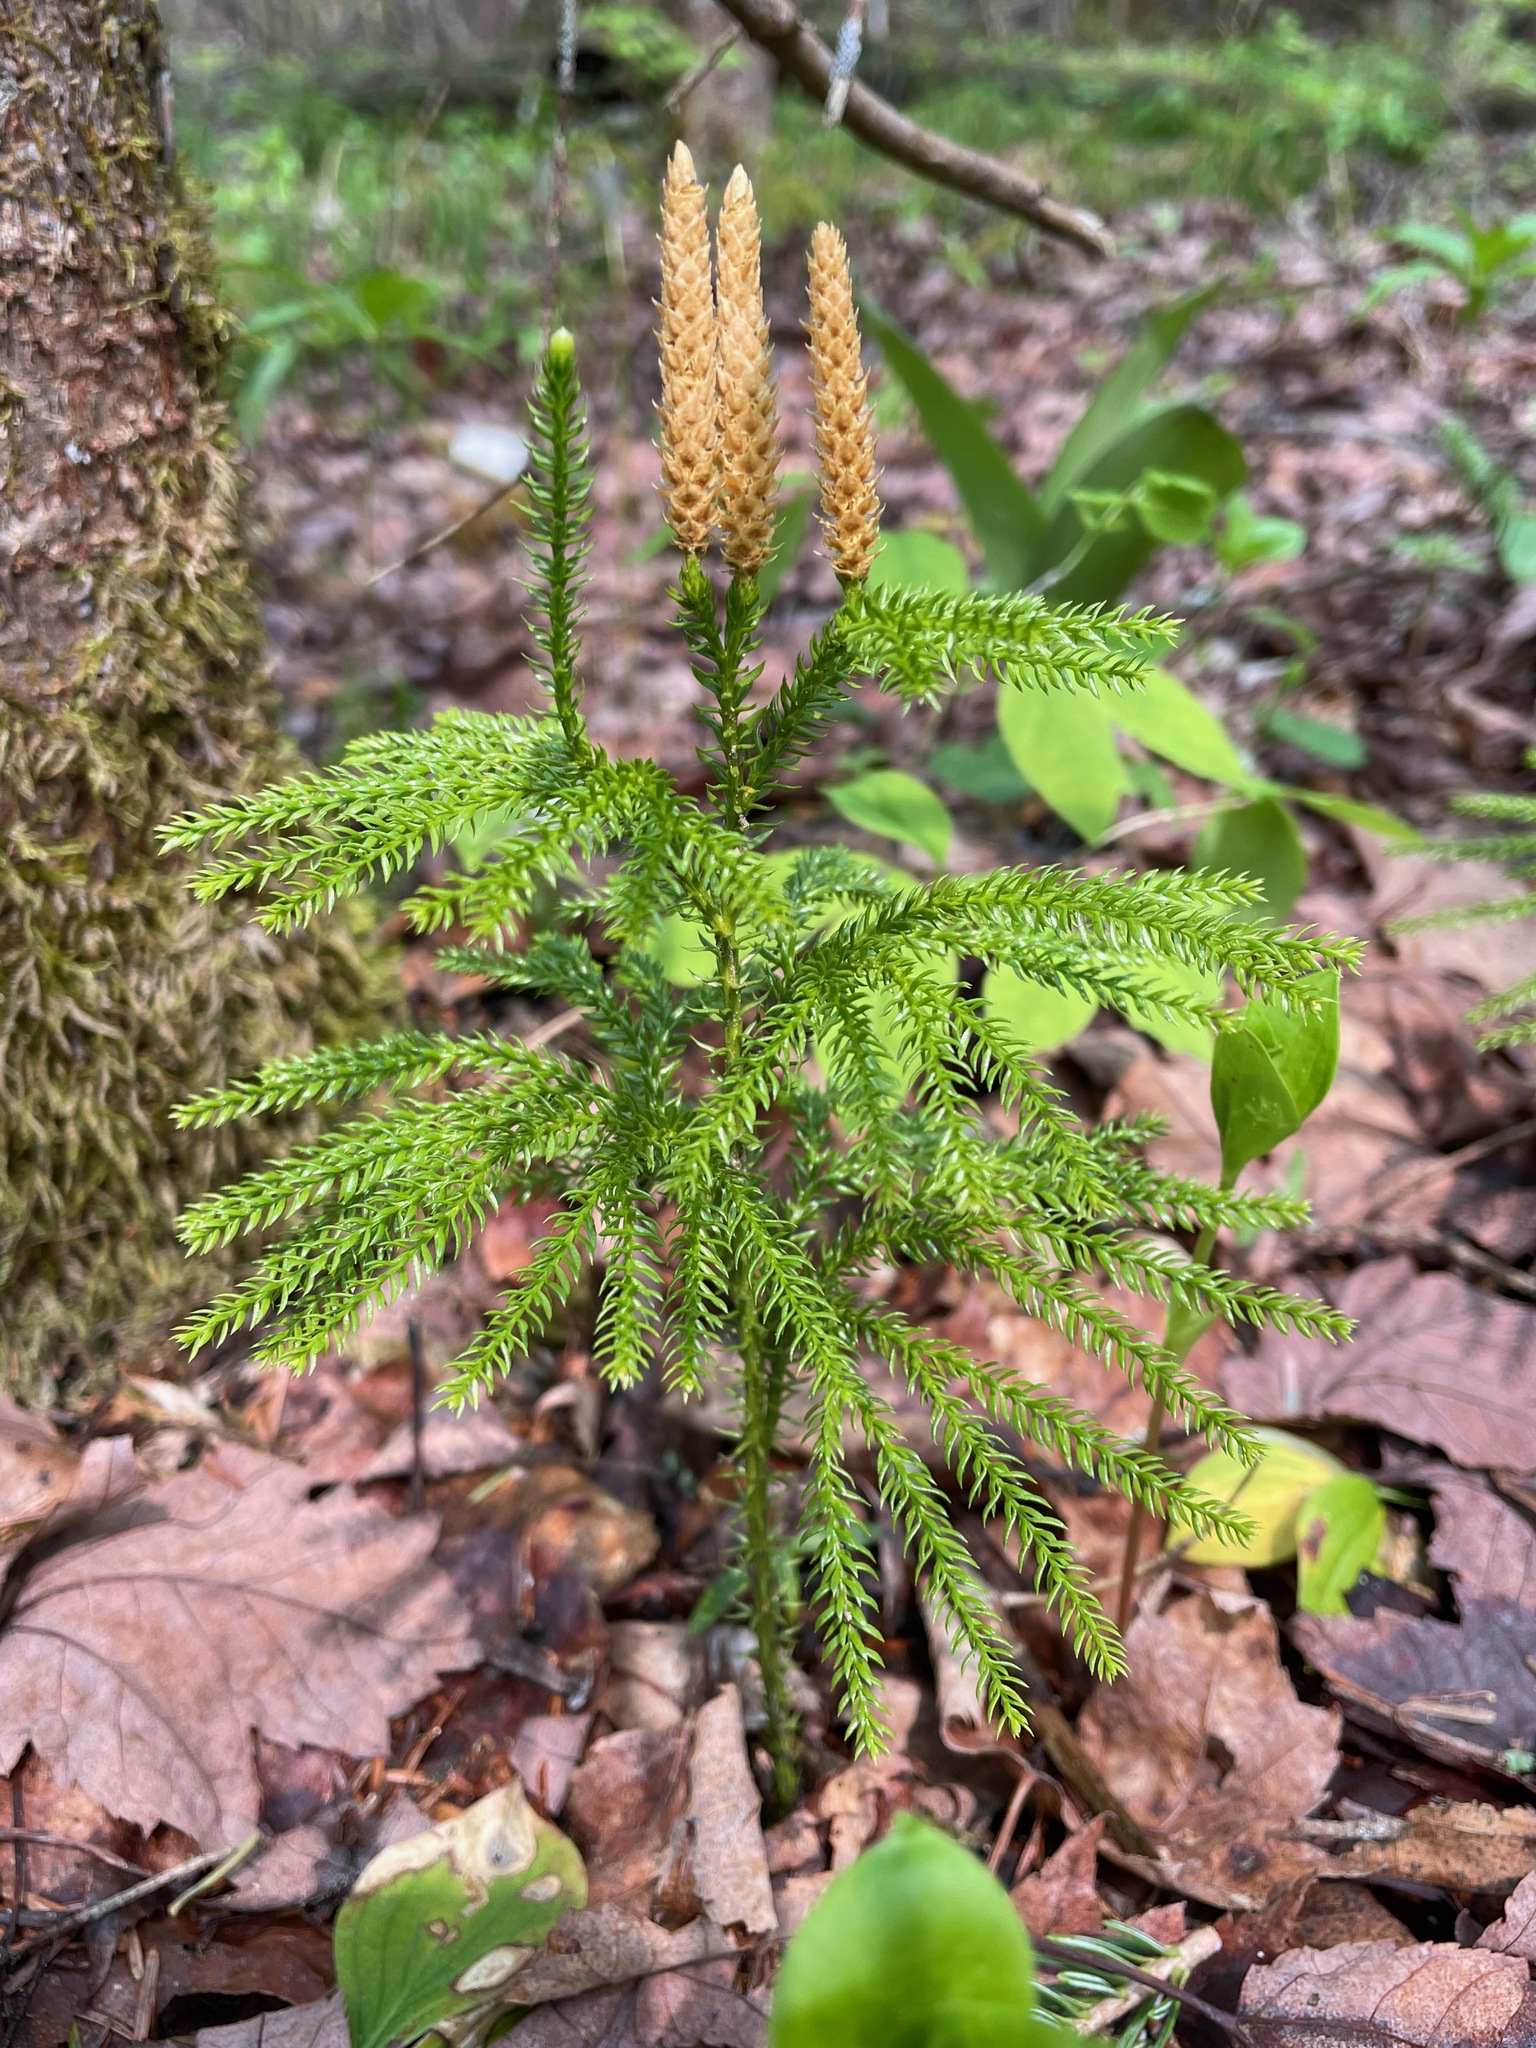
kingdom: Plantae
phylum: Tracheophyta
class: Lycopodiopsida
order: Lycopodiales
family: Lycopodiaceae
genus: Dendrolycopodium
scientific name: Dendrolycopodium dendroideum
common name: Northern tree-clubmoss
